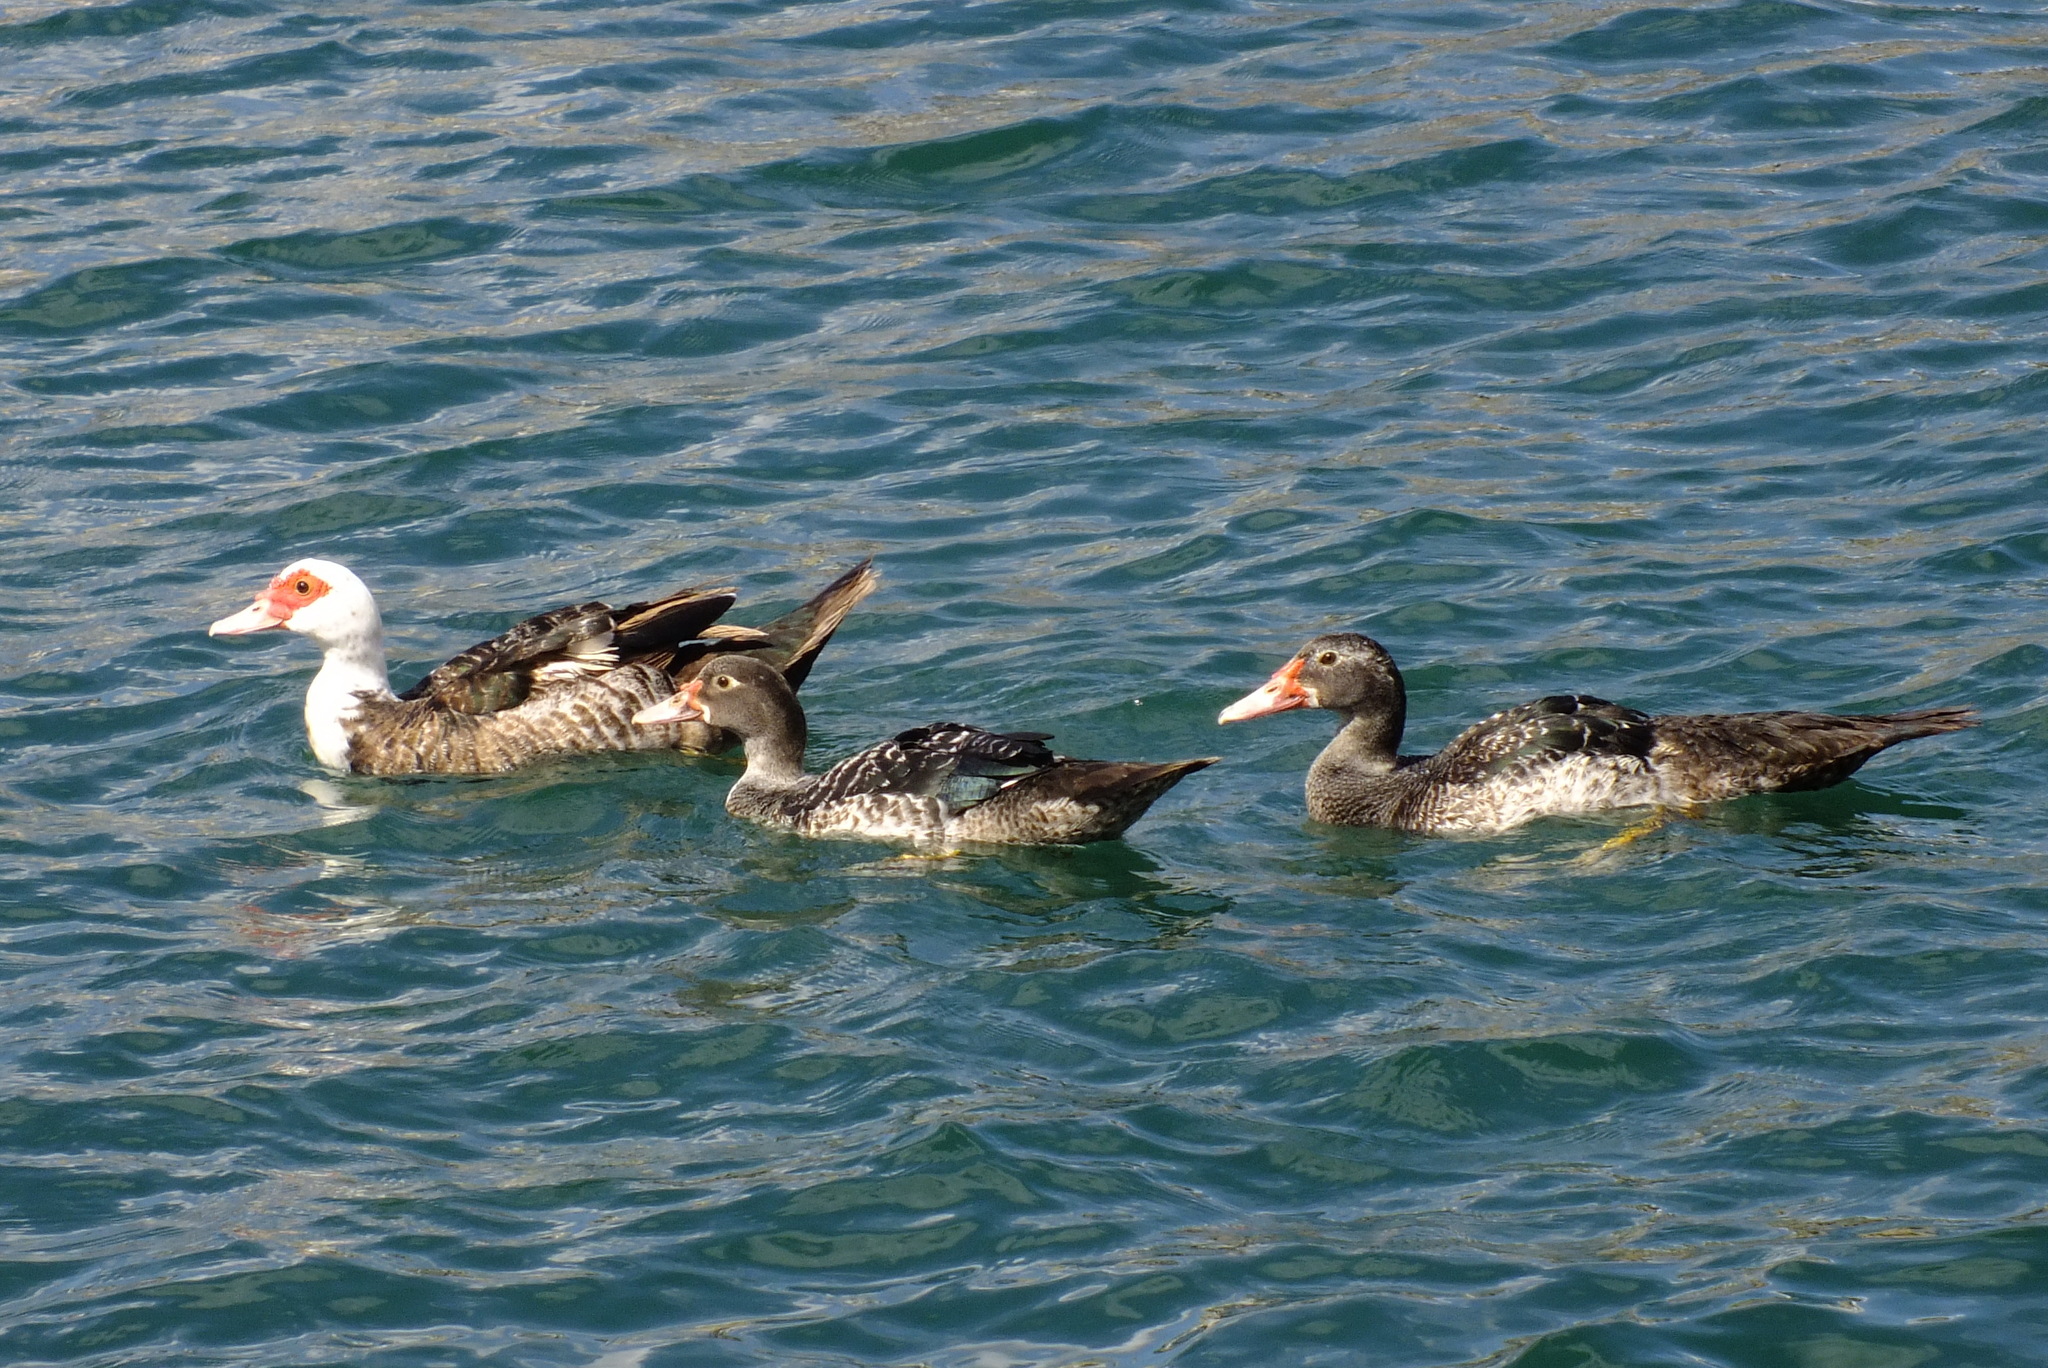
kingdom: Animalia
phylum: Chordata
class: Aves
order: Anseriformes
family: Anatidae
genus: Cairina
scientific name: Cairina moschata
